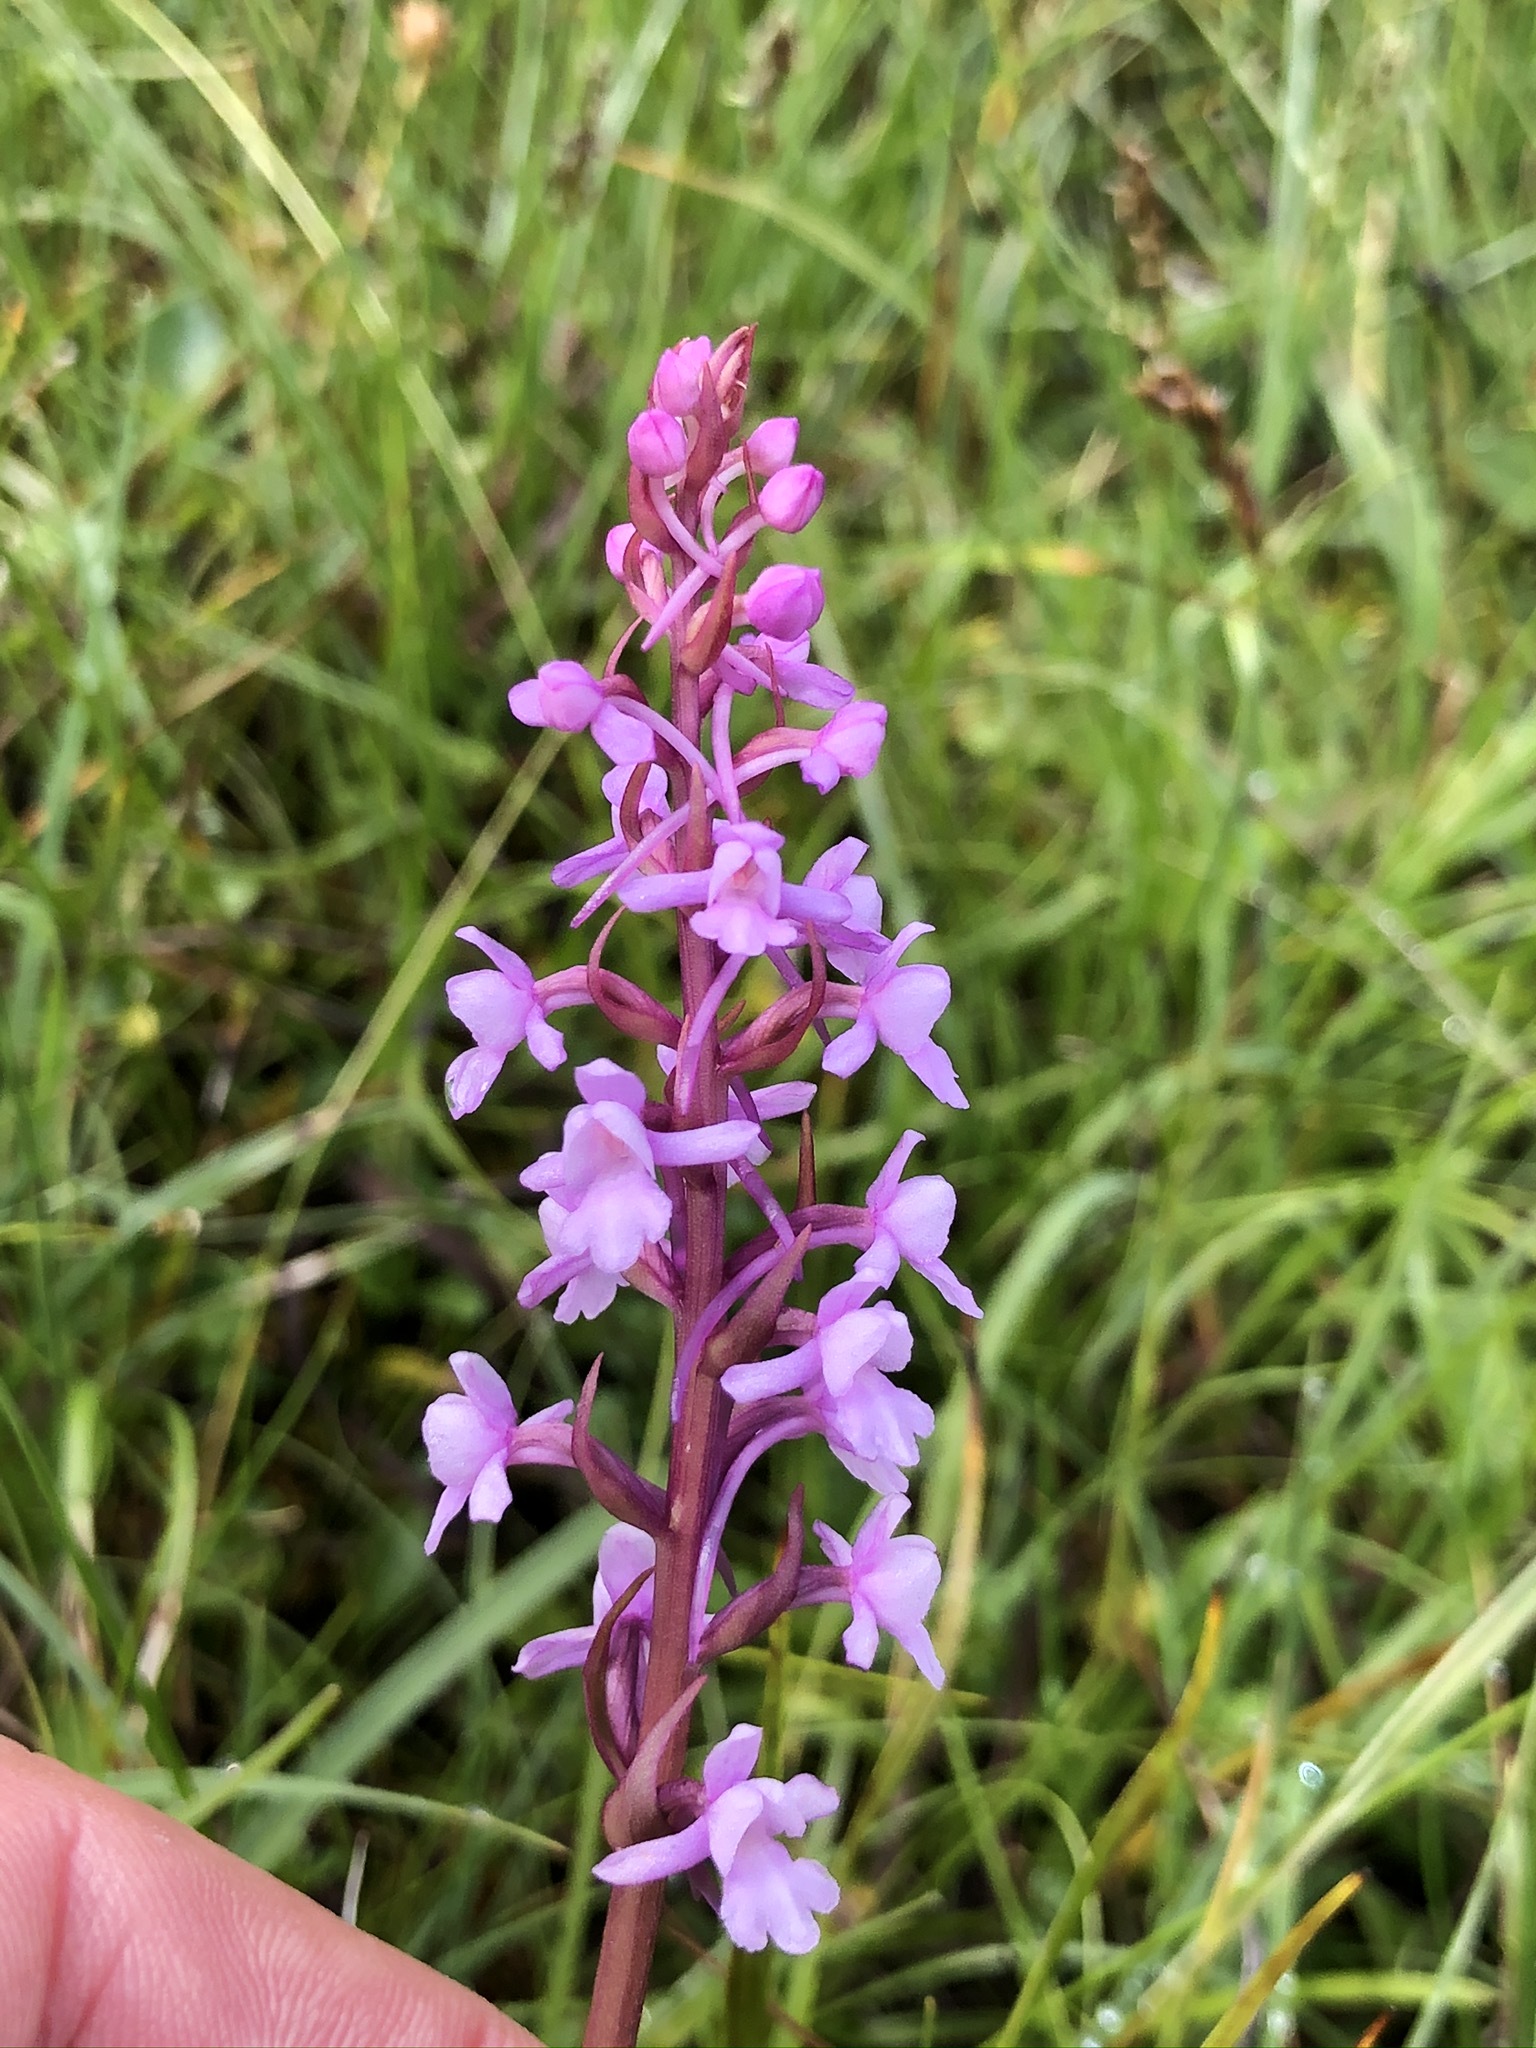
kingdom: Plantae
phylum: Tracheophyta
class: Liliopsida
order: Asparagales
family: Orchidaceae
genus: Gymnadenia
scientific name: Gymnadenia conopsea
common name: Fragrant orchid
